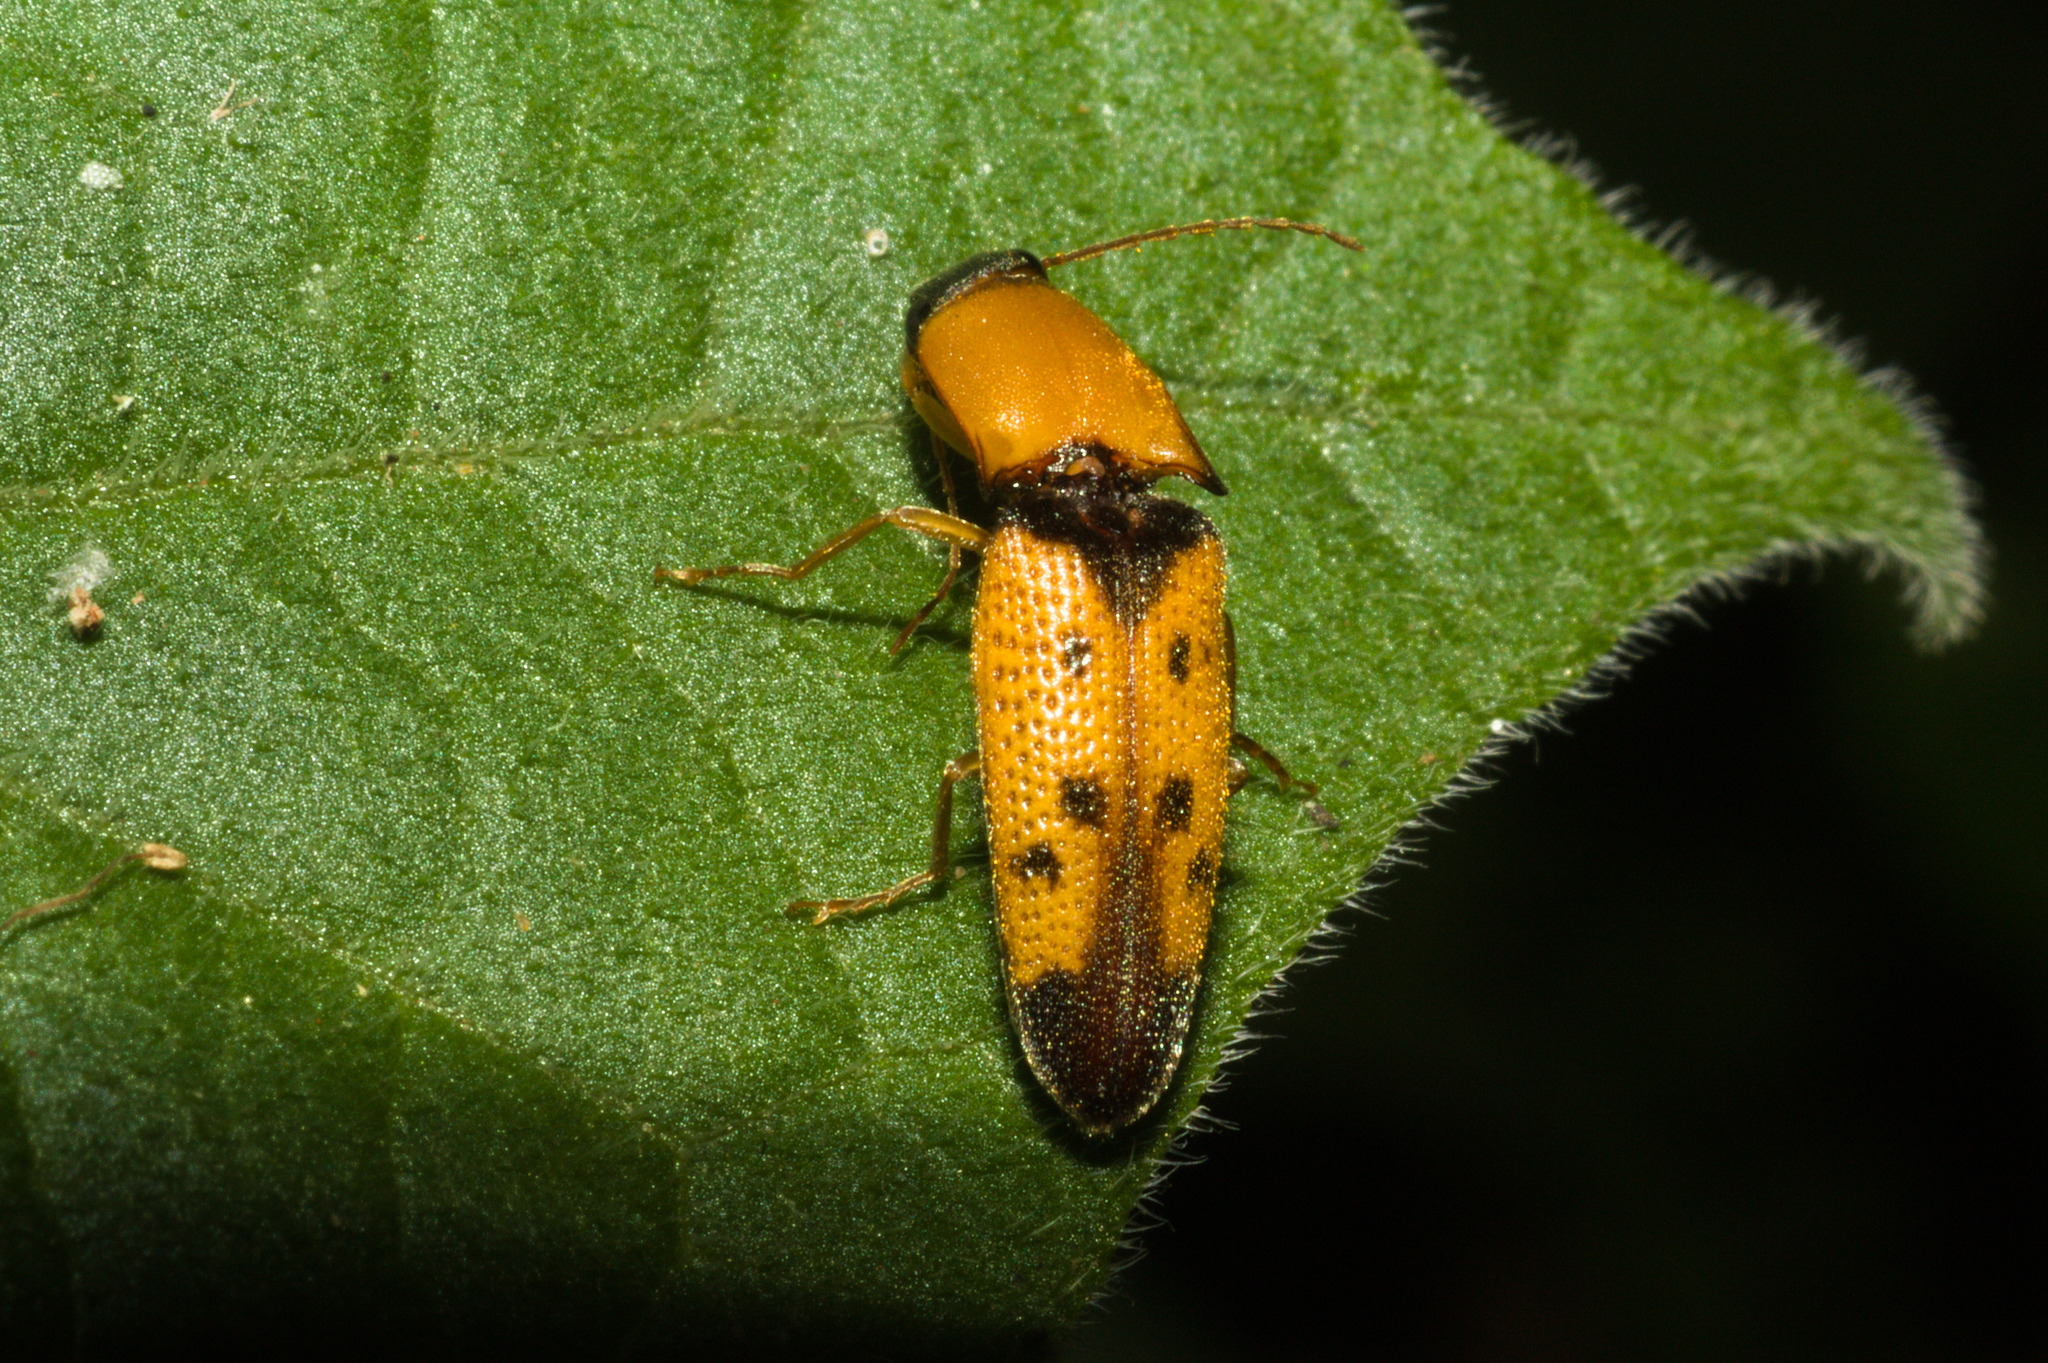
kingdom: Animalia
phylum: Arthropoda
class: Insecta
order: Coleoptera
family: Elateridae
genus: Monocrepidius
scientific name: Monocrepidius
